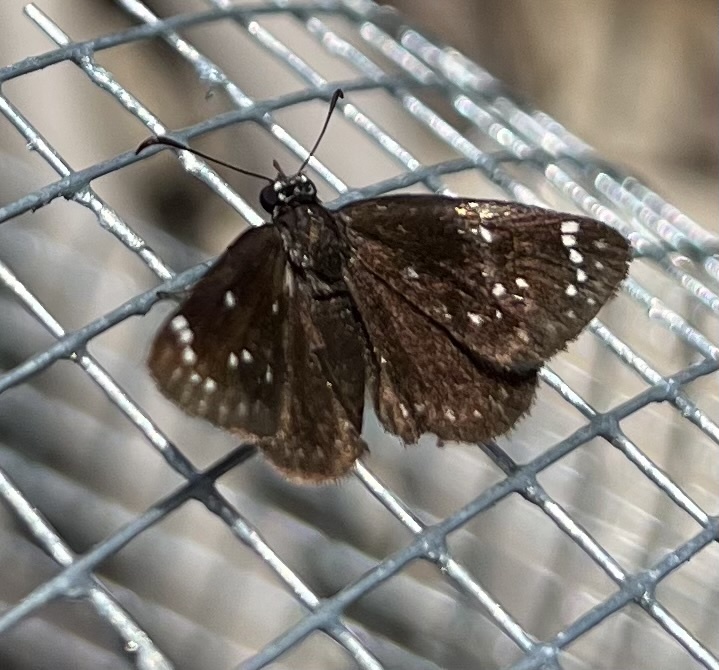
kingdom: Animalia
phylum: Arthropoda
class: Insecta
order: Lepidoptera
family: Hesperiidae
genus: Pholisora
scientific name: Pholisora catullus
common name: Common sootywing
